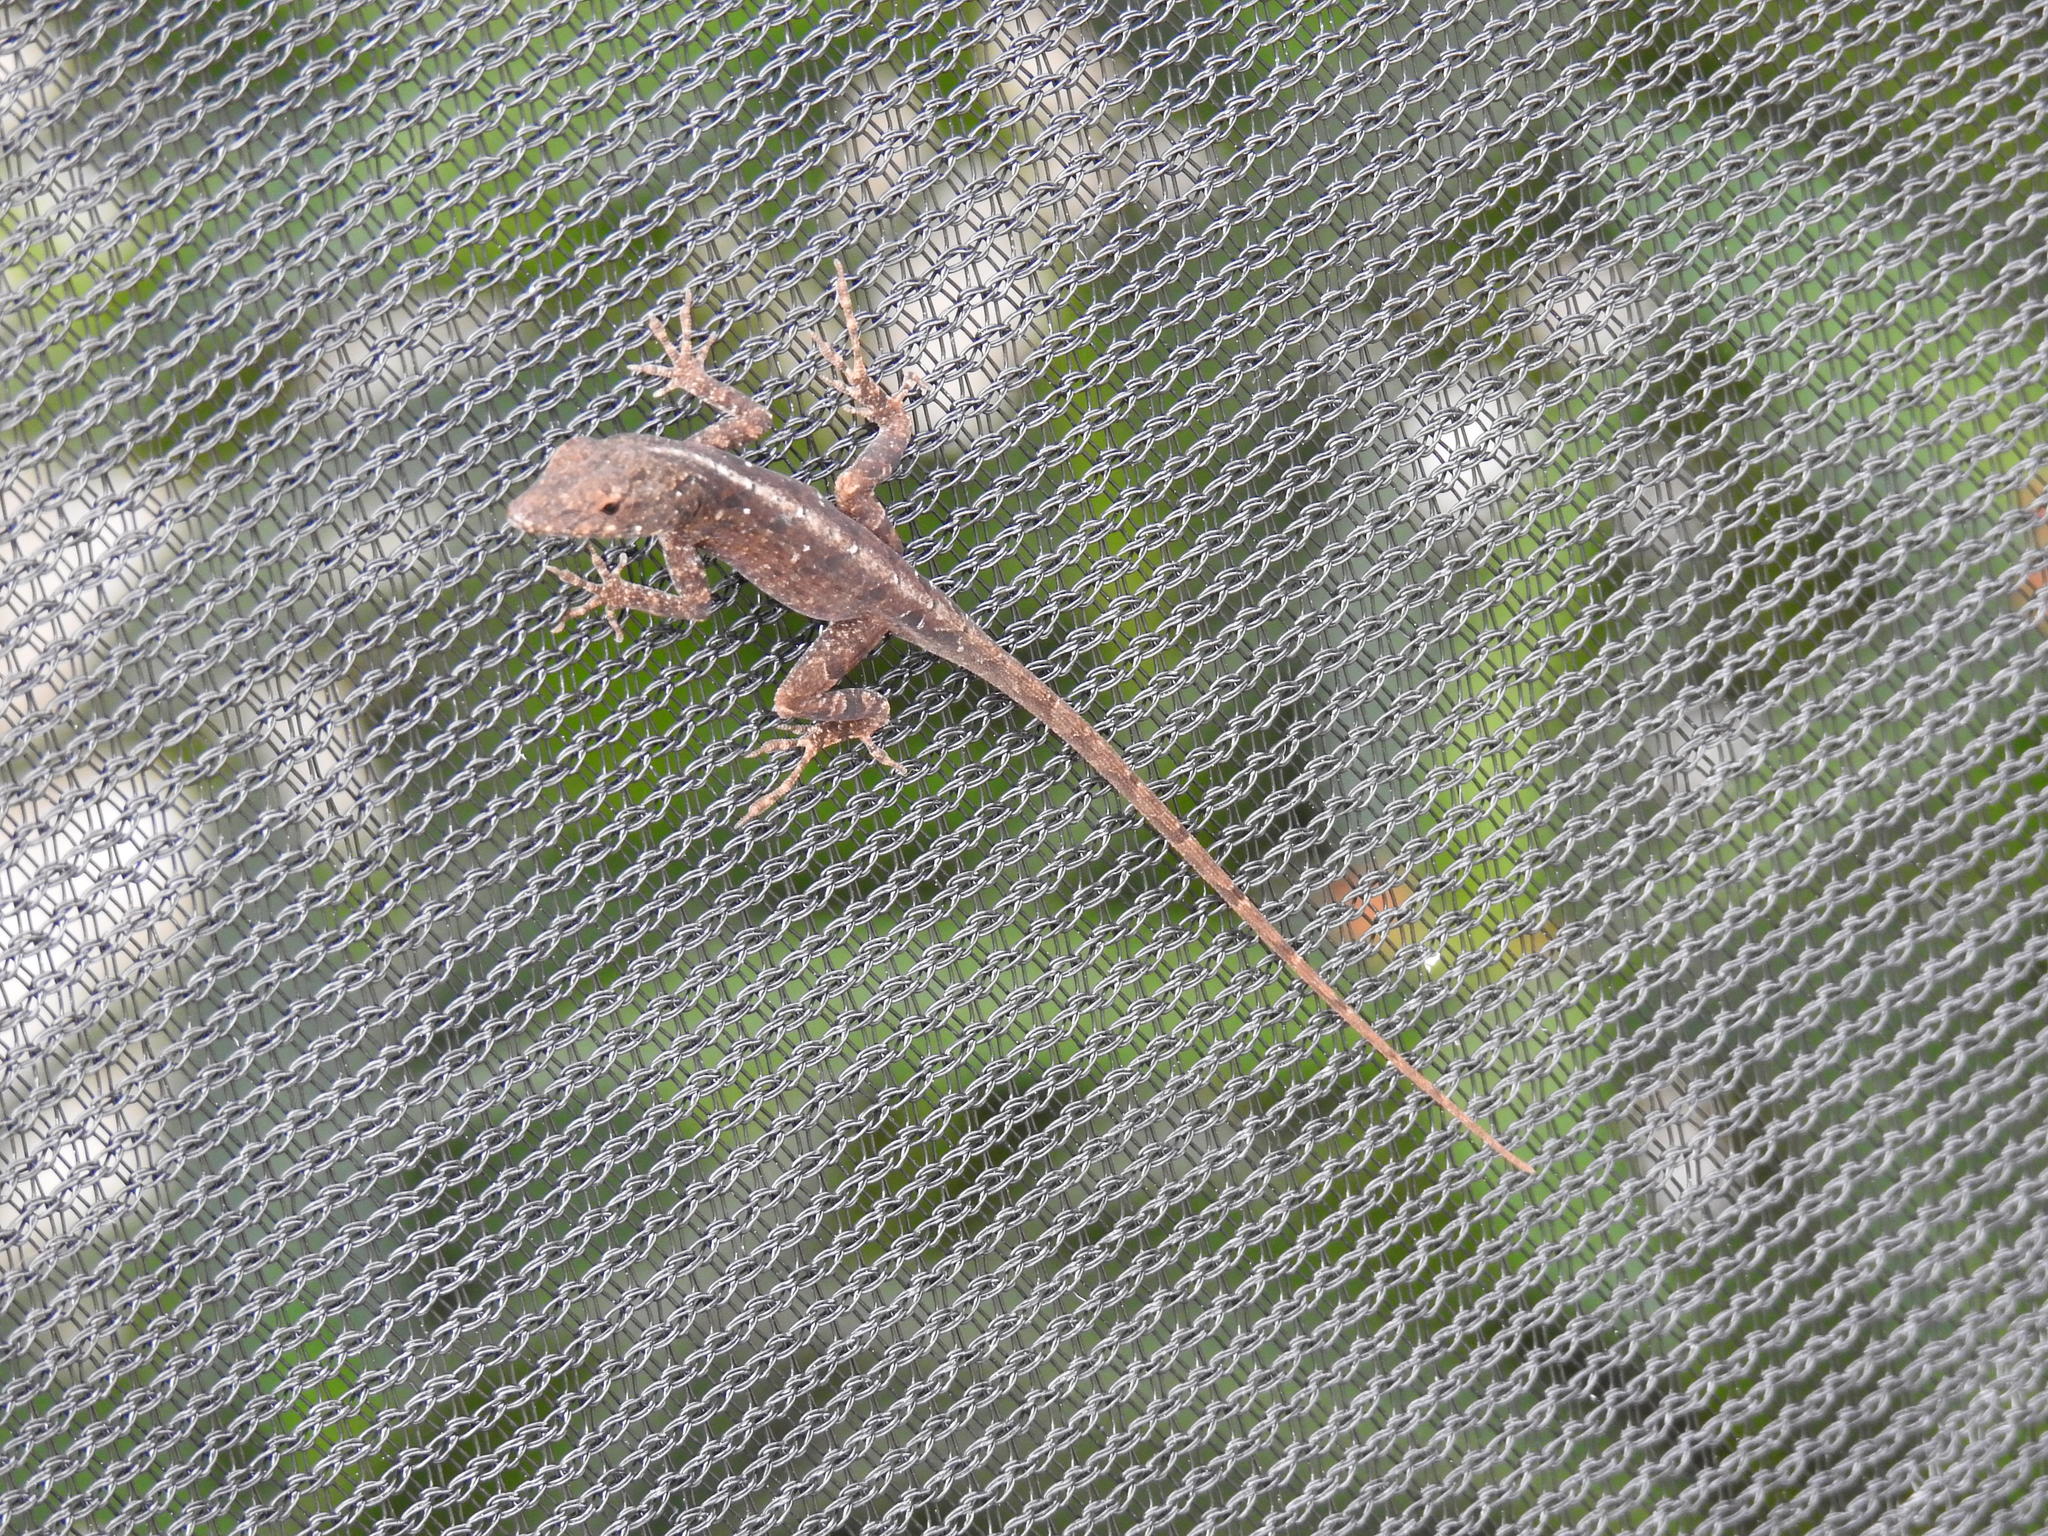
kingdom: Animalia
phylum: Chordata
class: Squamata
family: Dactyloidae
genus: Anolis
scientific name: Anolis sagrei
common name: Brown anole
